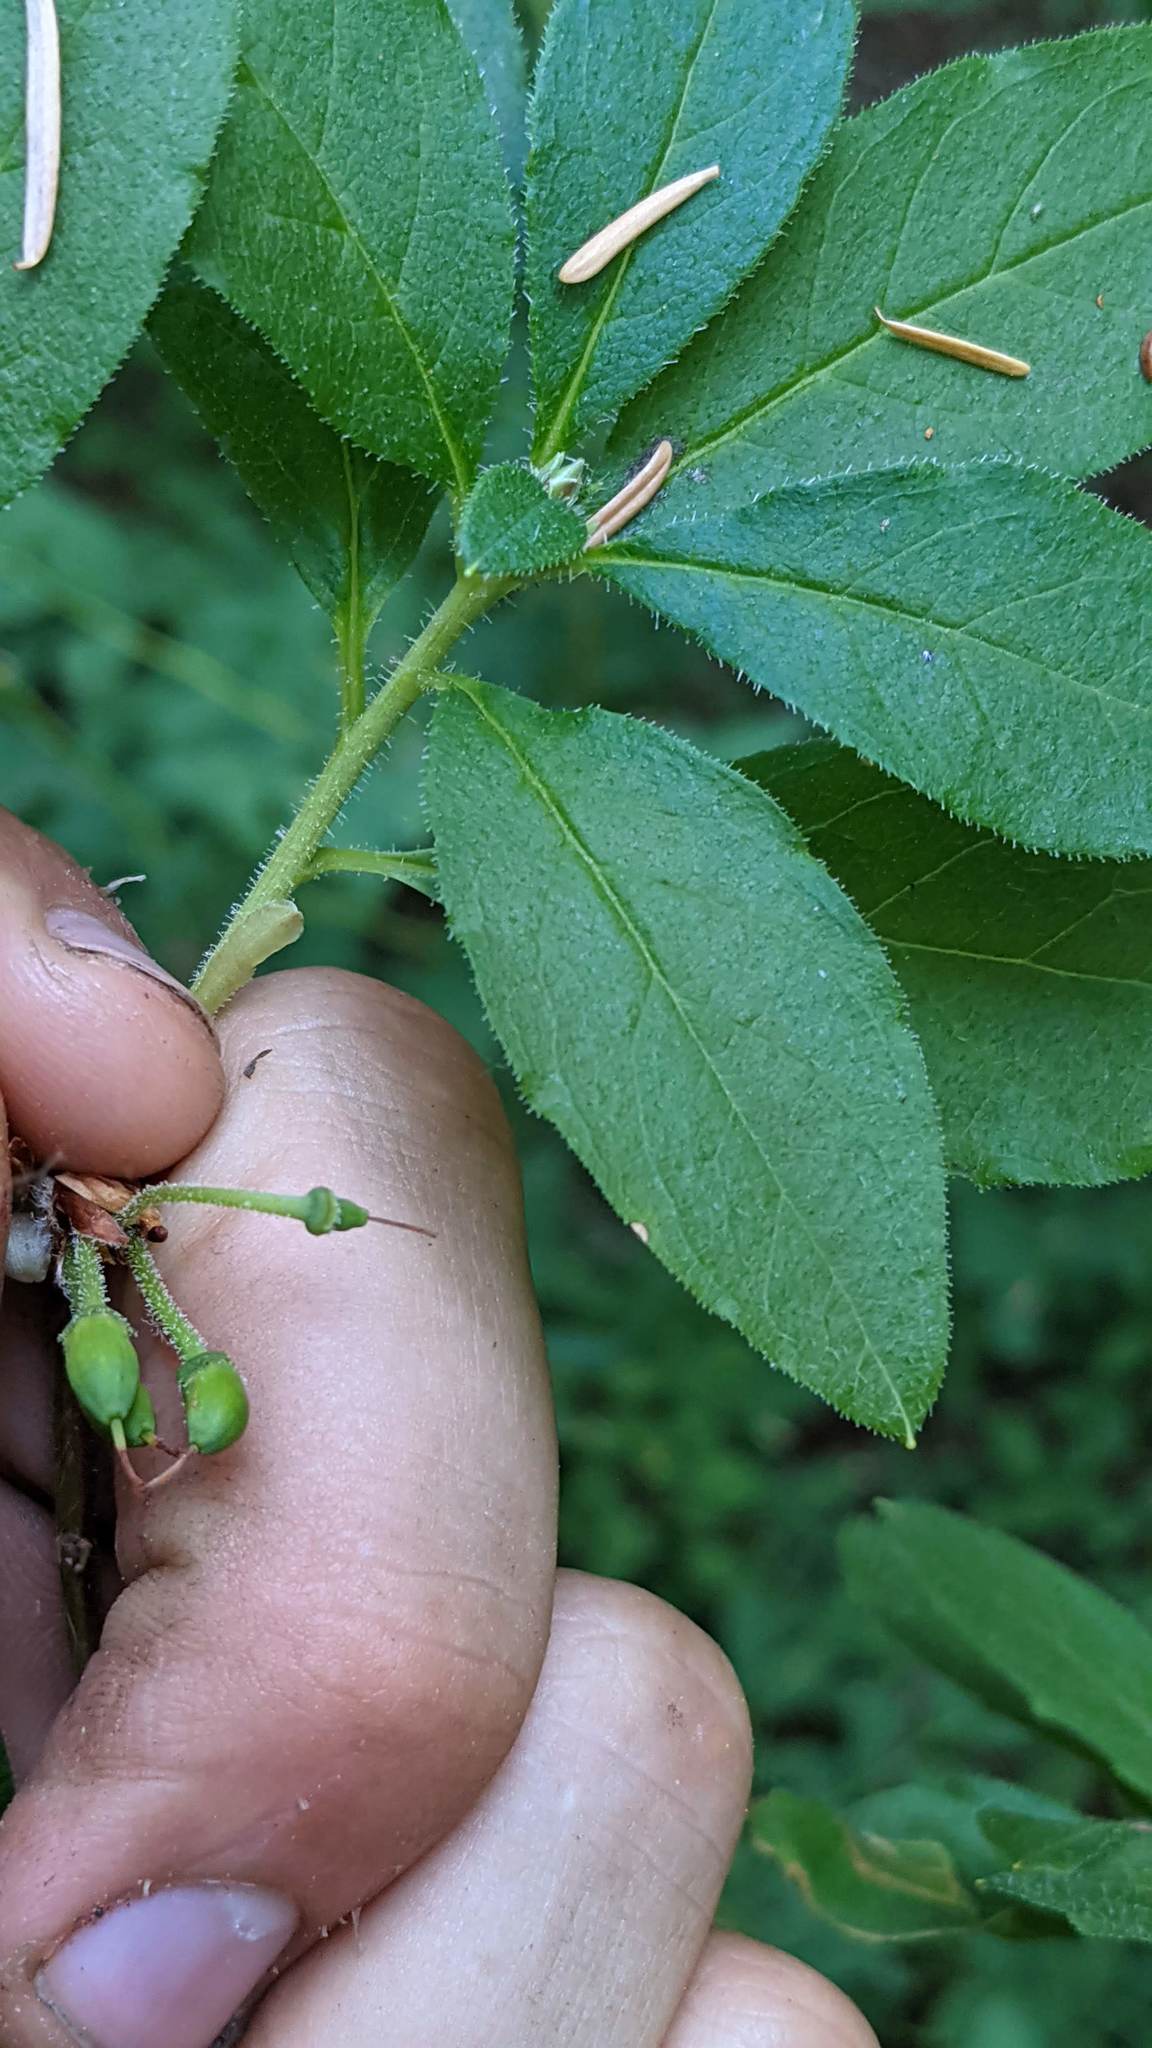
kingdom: Plantae
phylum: Tracheophyta
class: Magnoliopsida
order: Ericales
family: Ericaceae
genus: Rhododendron
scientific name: Rhododendron menziesii
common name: Pacific menziesia
